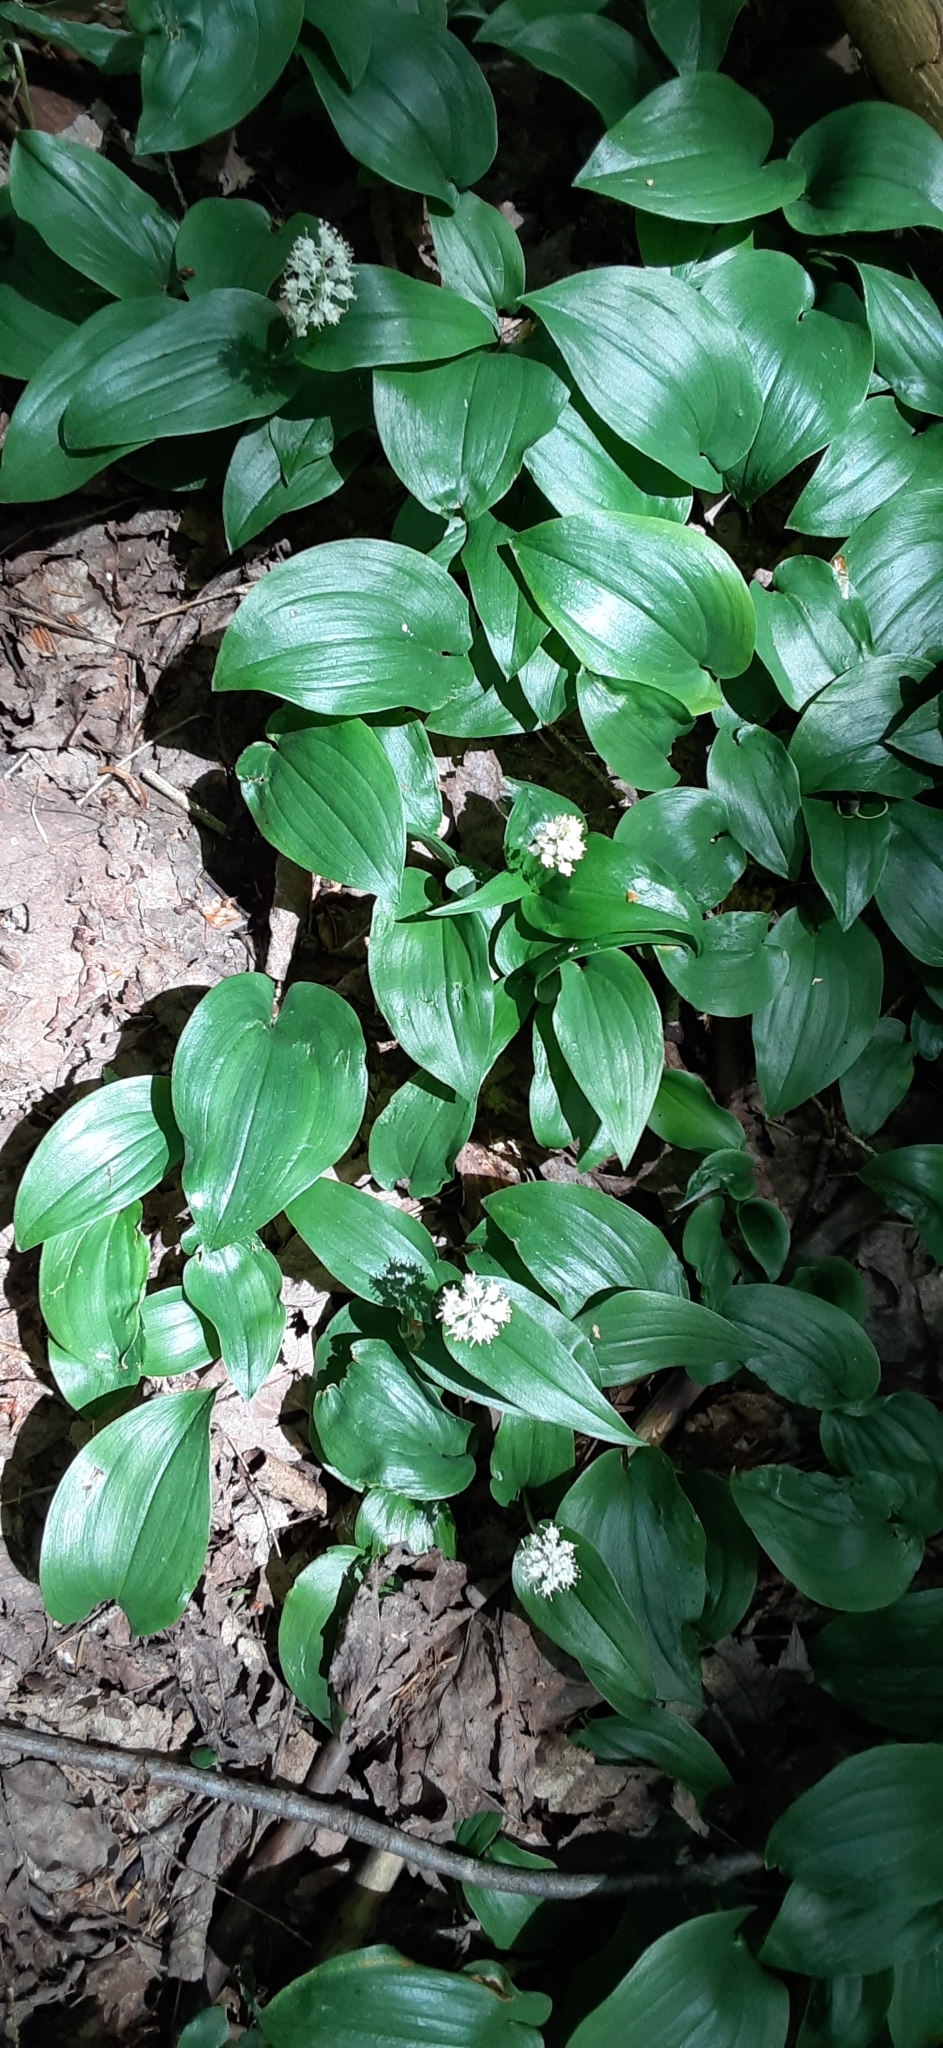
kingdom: Plantae
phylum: Tracheophyta
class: Liliopsida
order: Asparagales
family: Asparagaceae
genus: Maianthemum
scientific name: Maianthemum canadense
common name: False lily-of-the-valley
